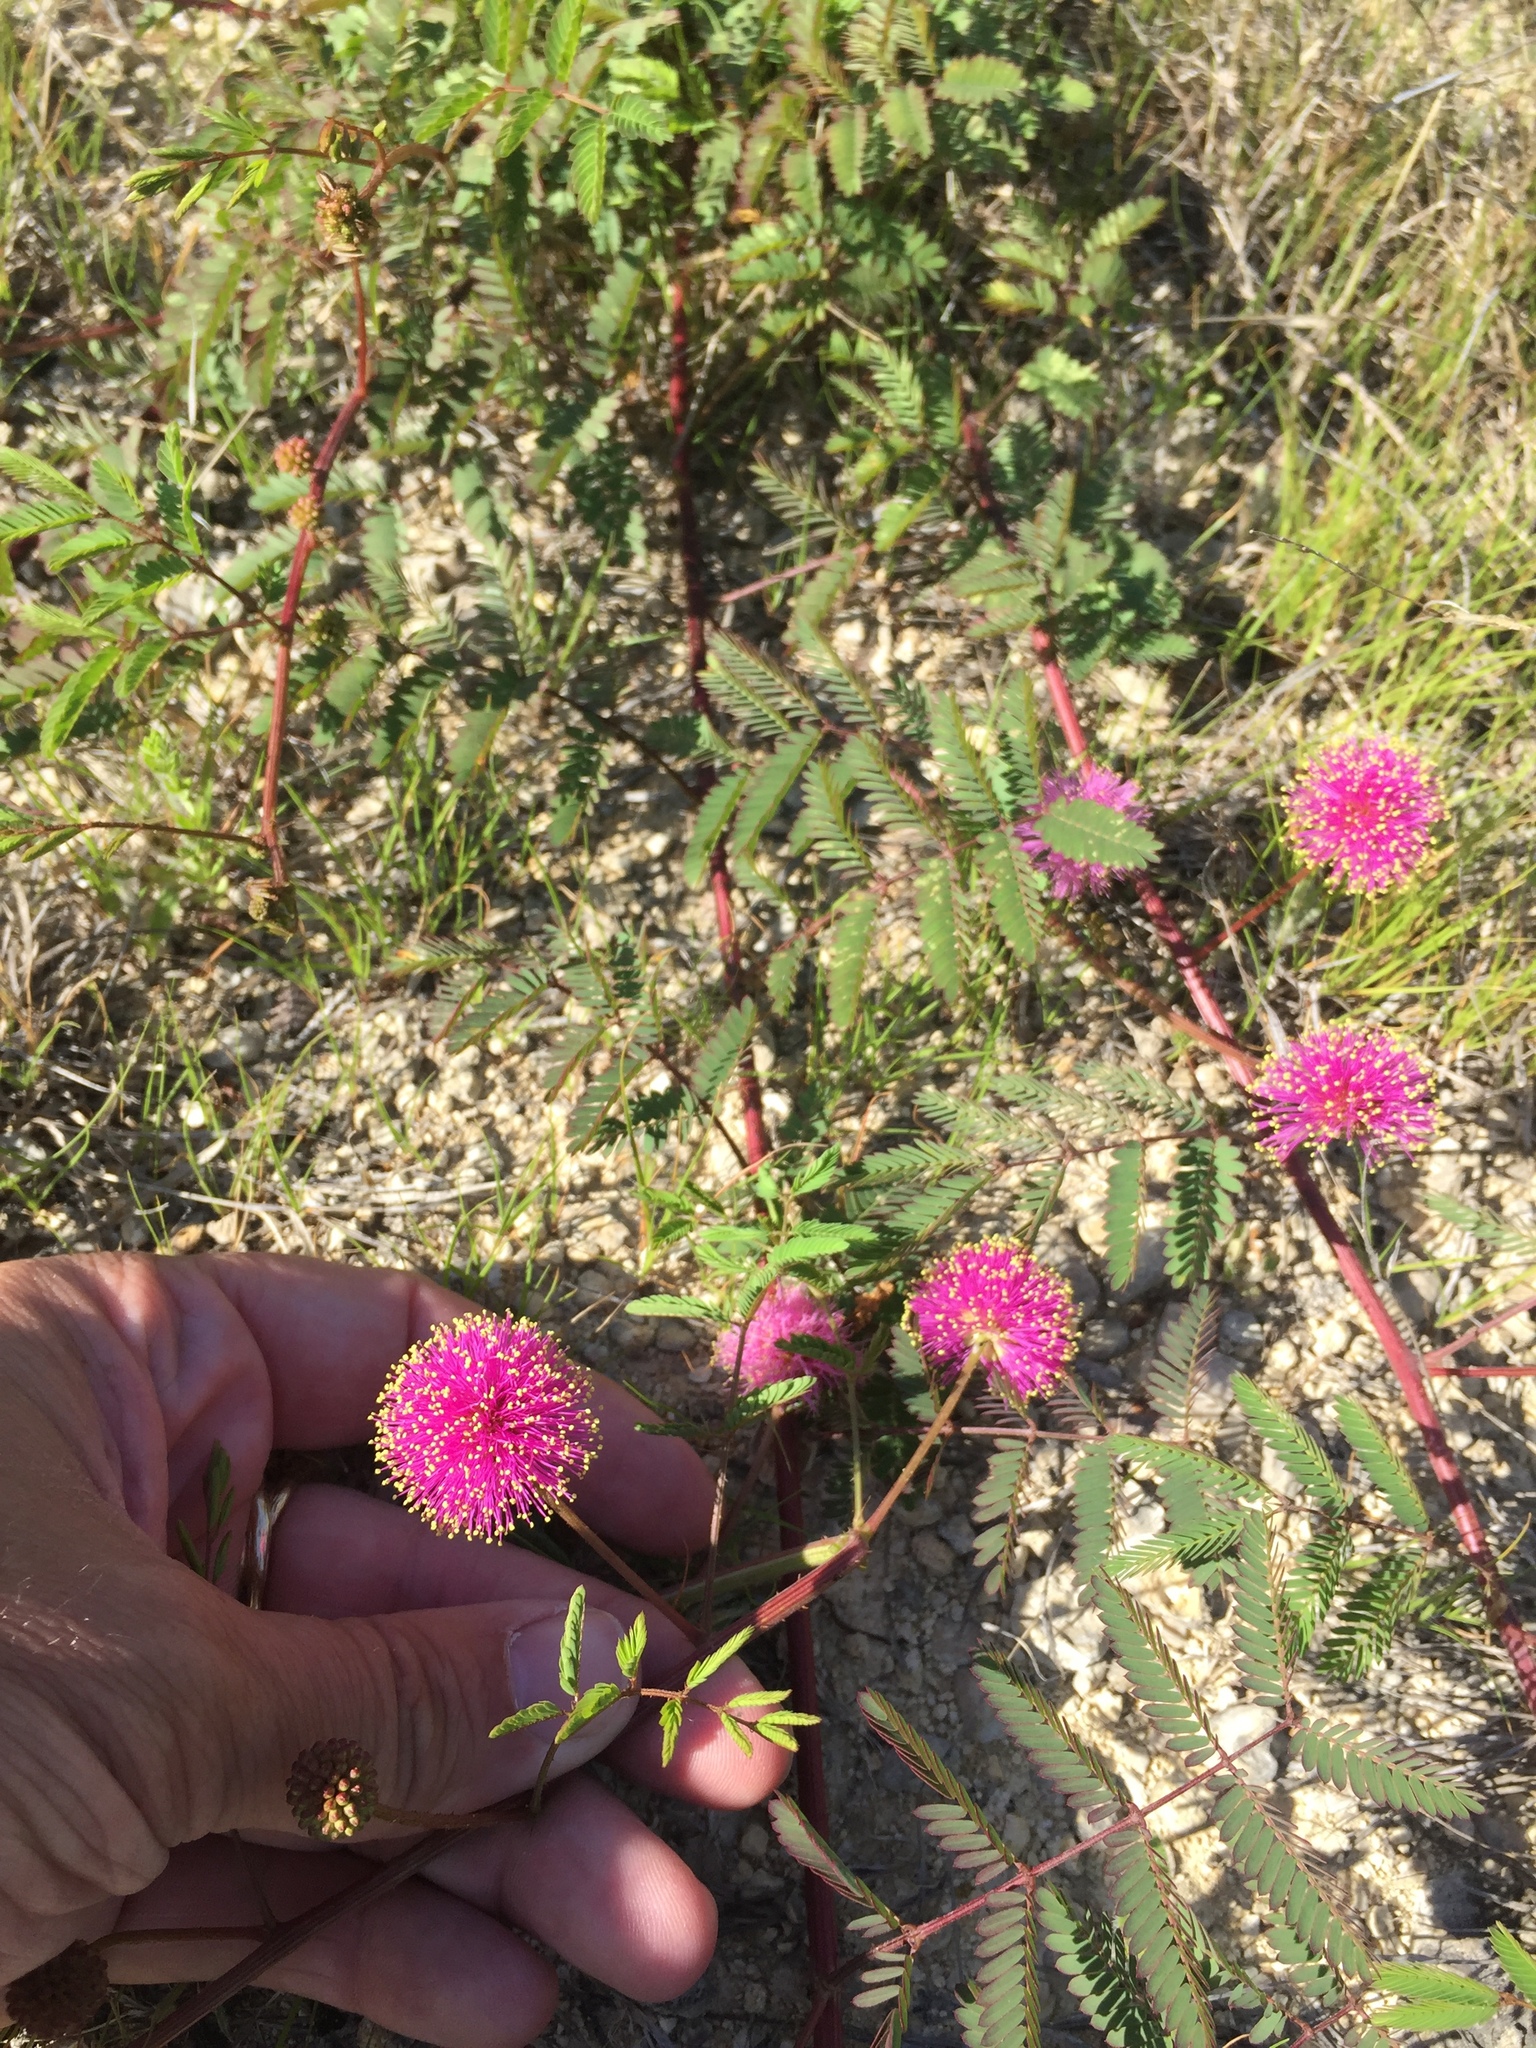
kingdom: Plantae
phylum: Tracheophyta
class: Magnoliopsida
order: Fabales
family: Fabaceae
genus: Mimosa
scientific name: Mimosa quadrivalvis
